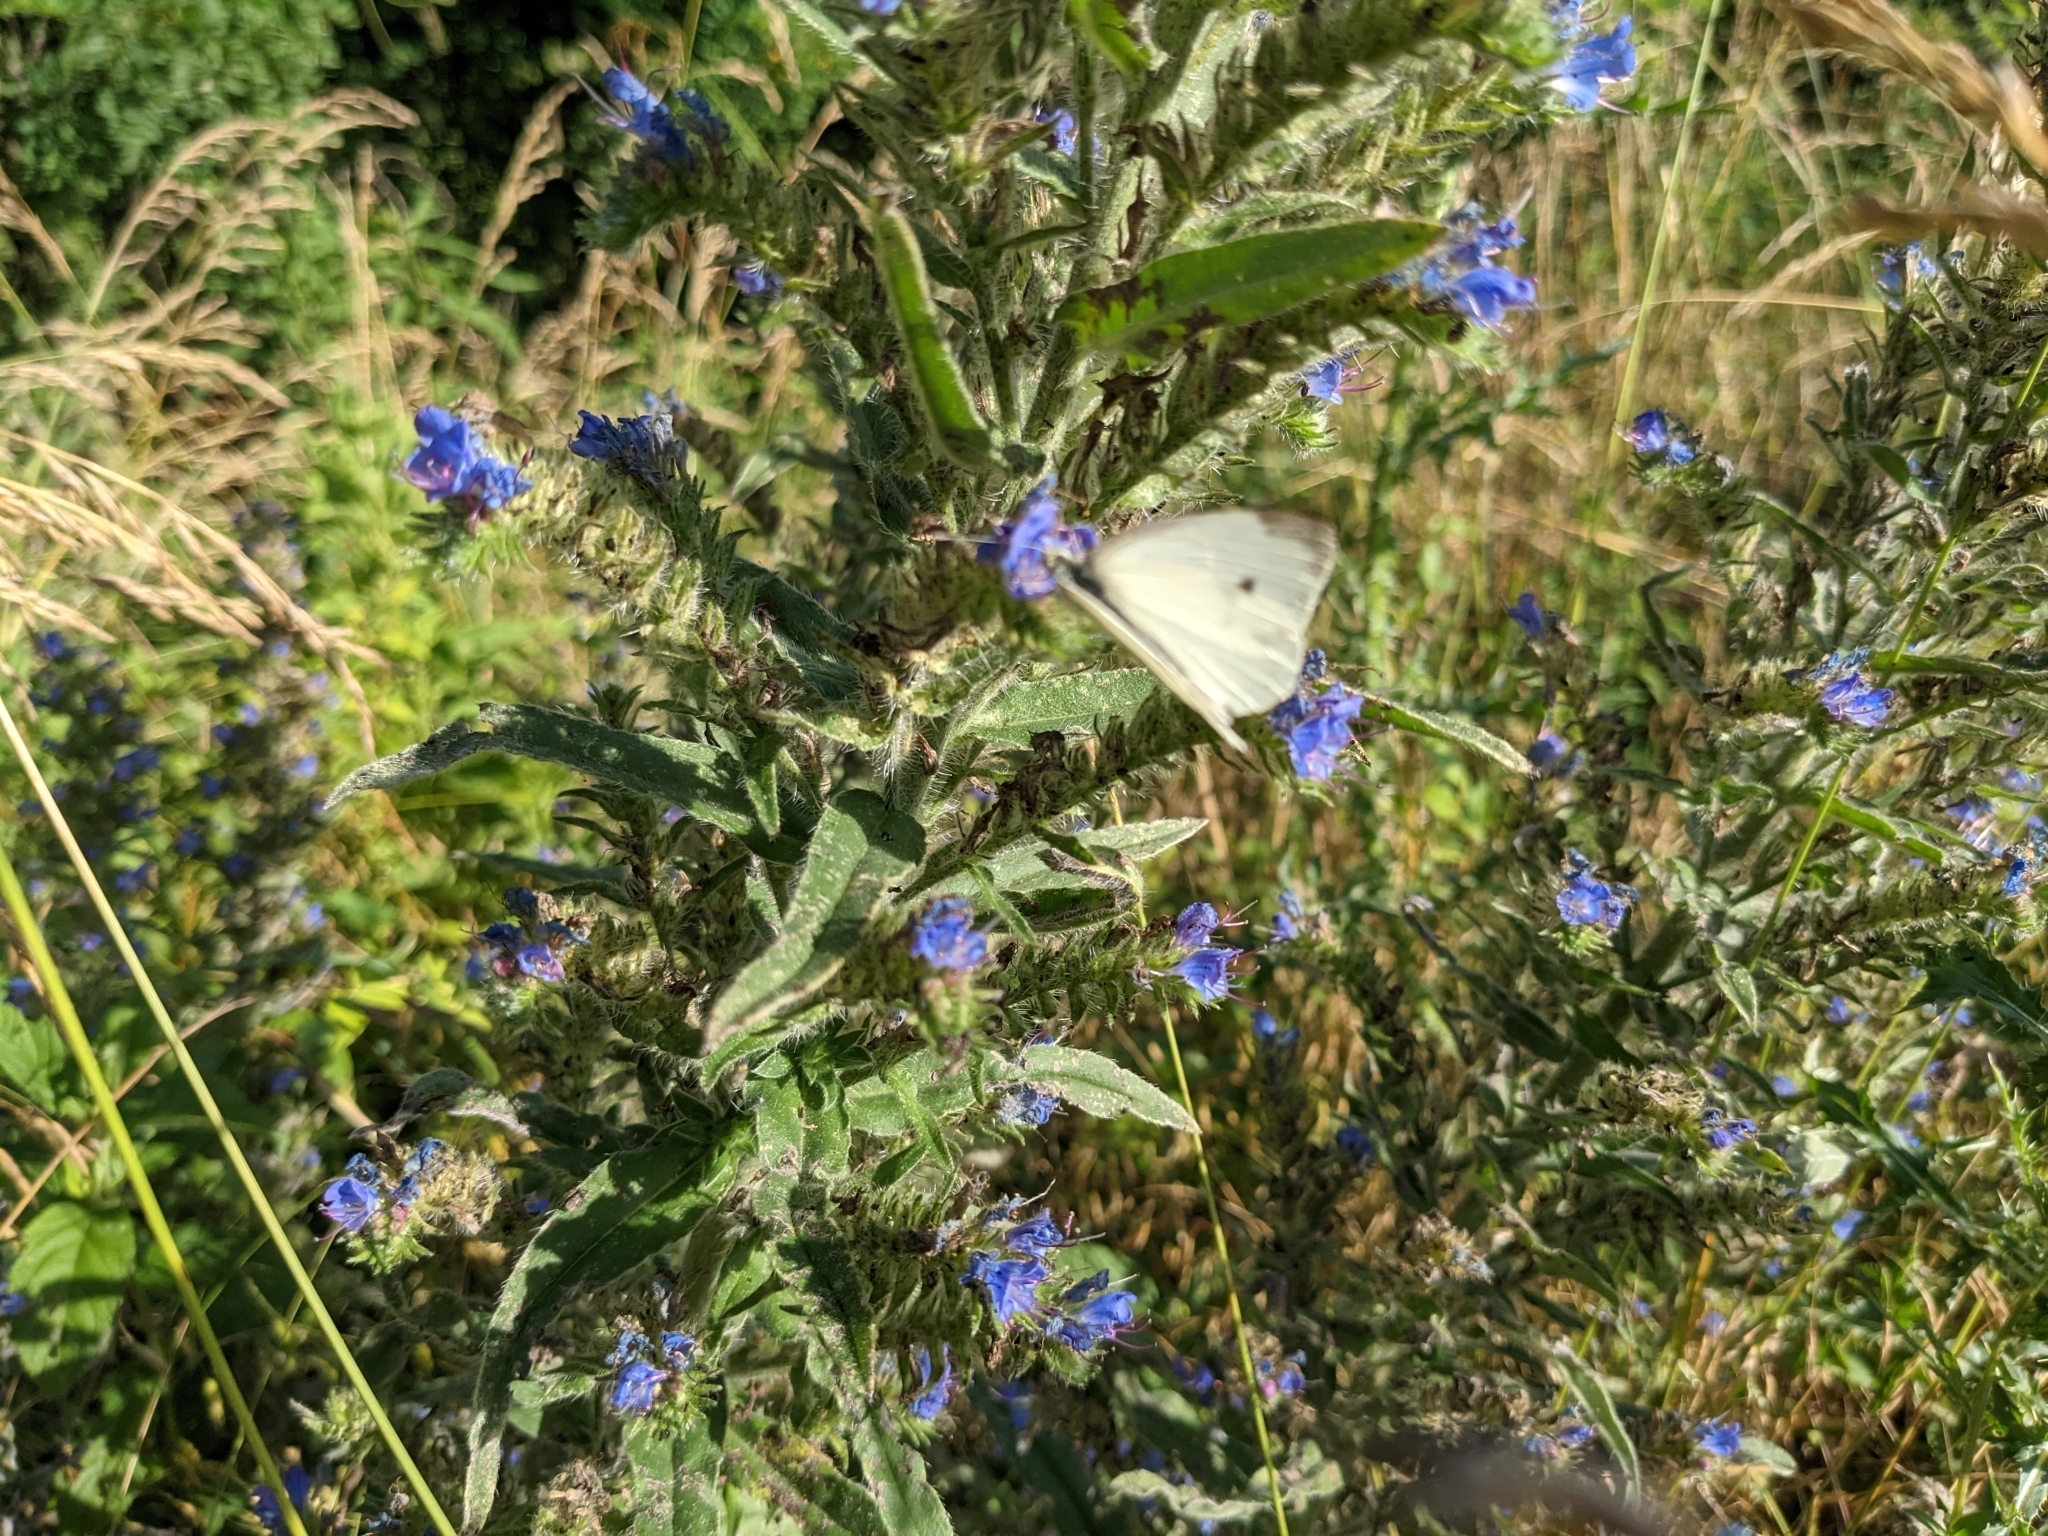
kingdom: Animalia
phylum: Arthropoda
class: Insecta
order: Lepidoptera
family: Pieridae
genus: Pieris
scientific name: Pieris rapae
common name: Small white
